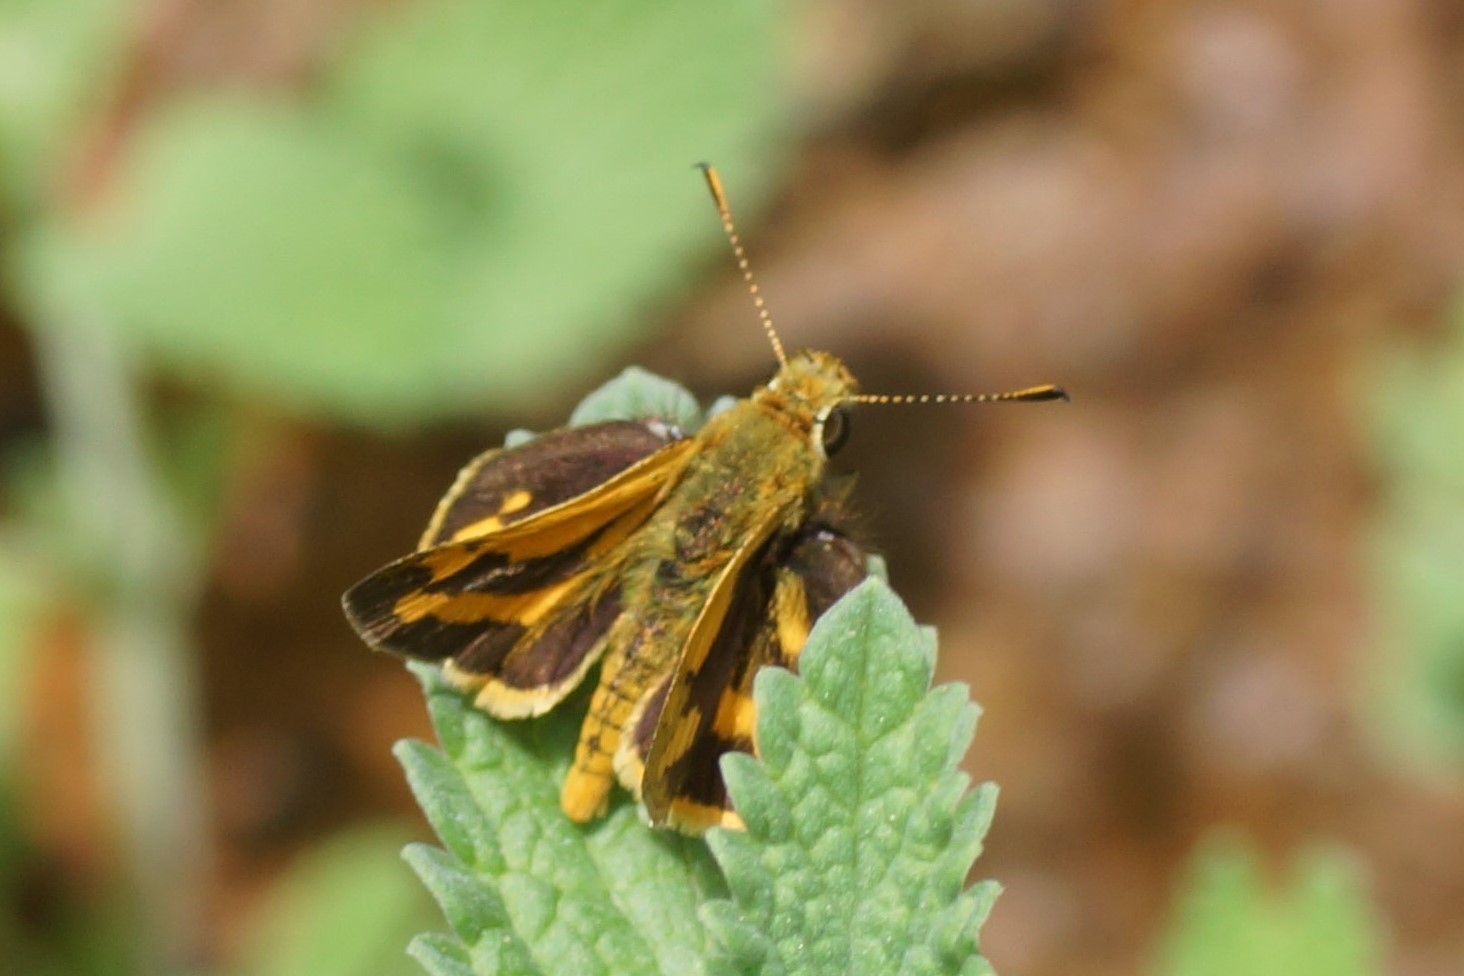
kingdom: Animalia
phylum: Arthropoda
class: Insecta
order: Lepidoptera
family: Hesperiidae
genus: Ocybadistes
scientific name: Ocybadistes walkeri
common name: Yellow-banded dart
